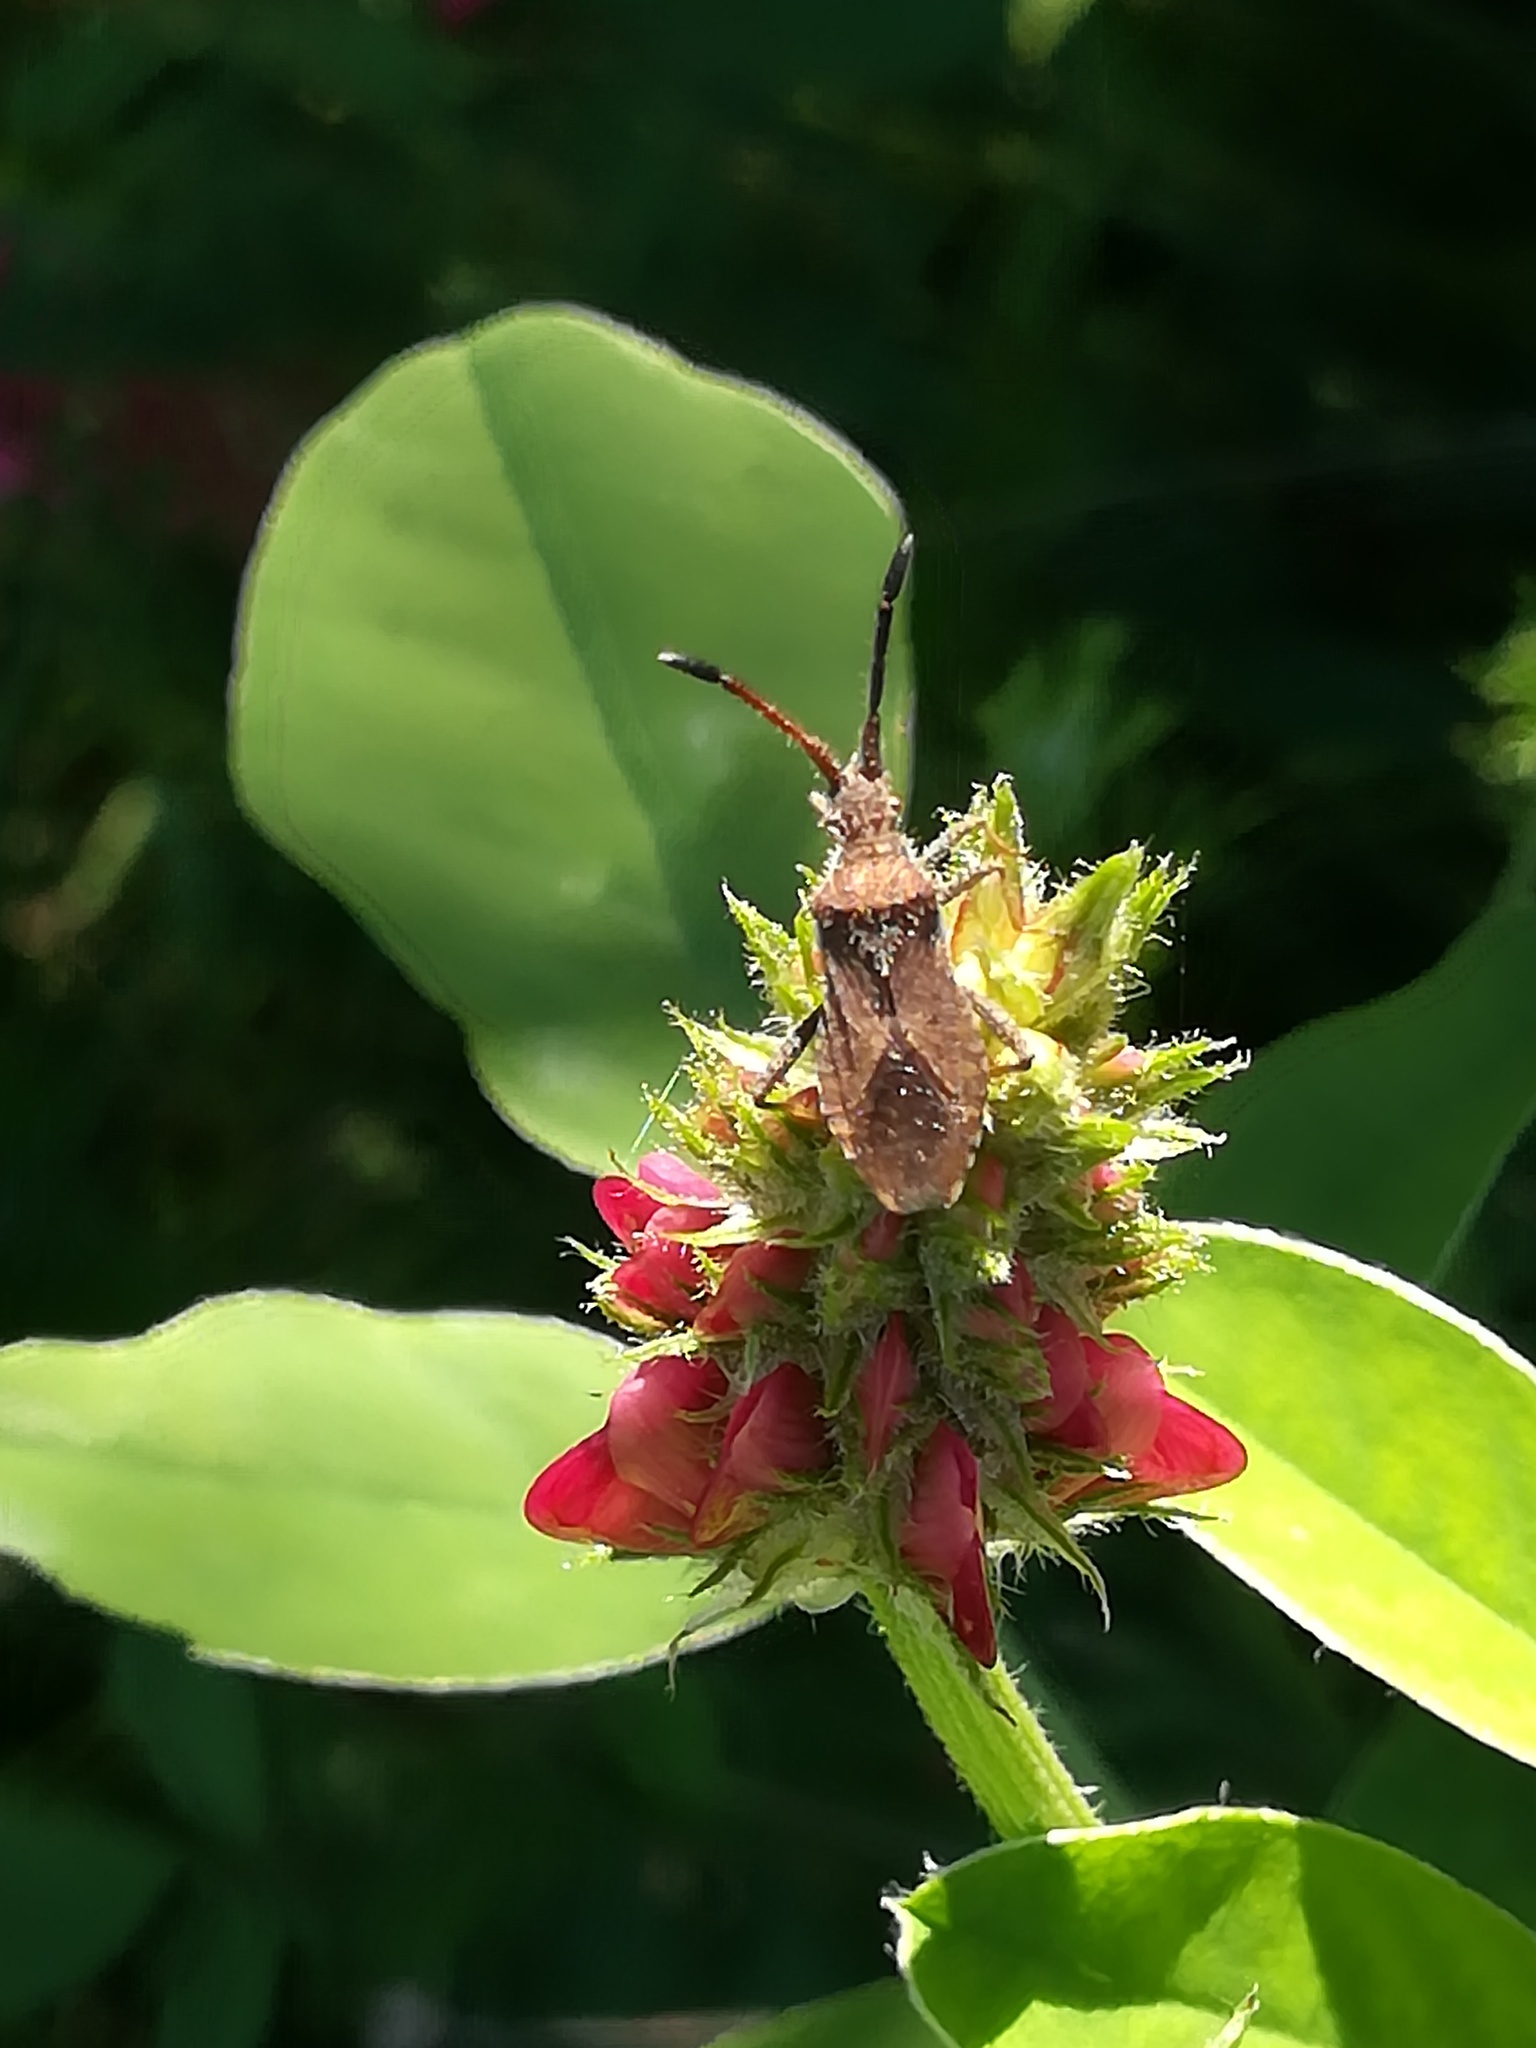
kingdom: Animalia
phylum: Arthropoda
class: Insecta
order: Hemiptera
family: Coreidae
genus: Coriomeris
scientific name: Coriomeris denticulatus
